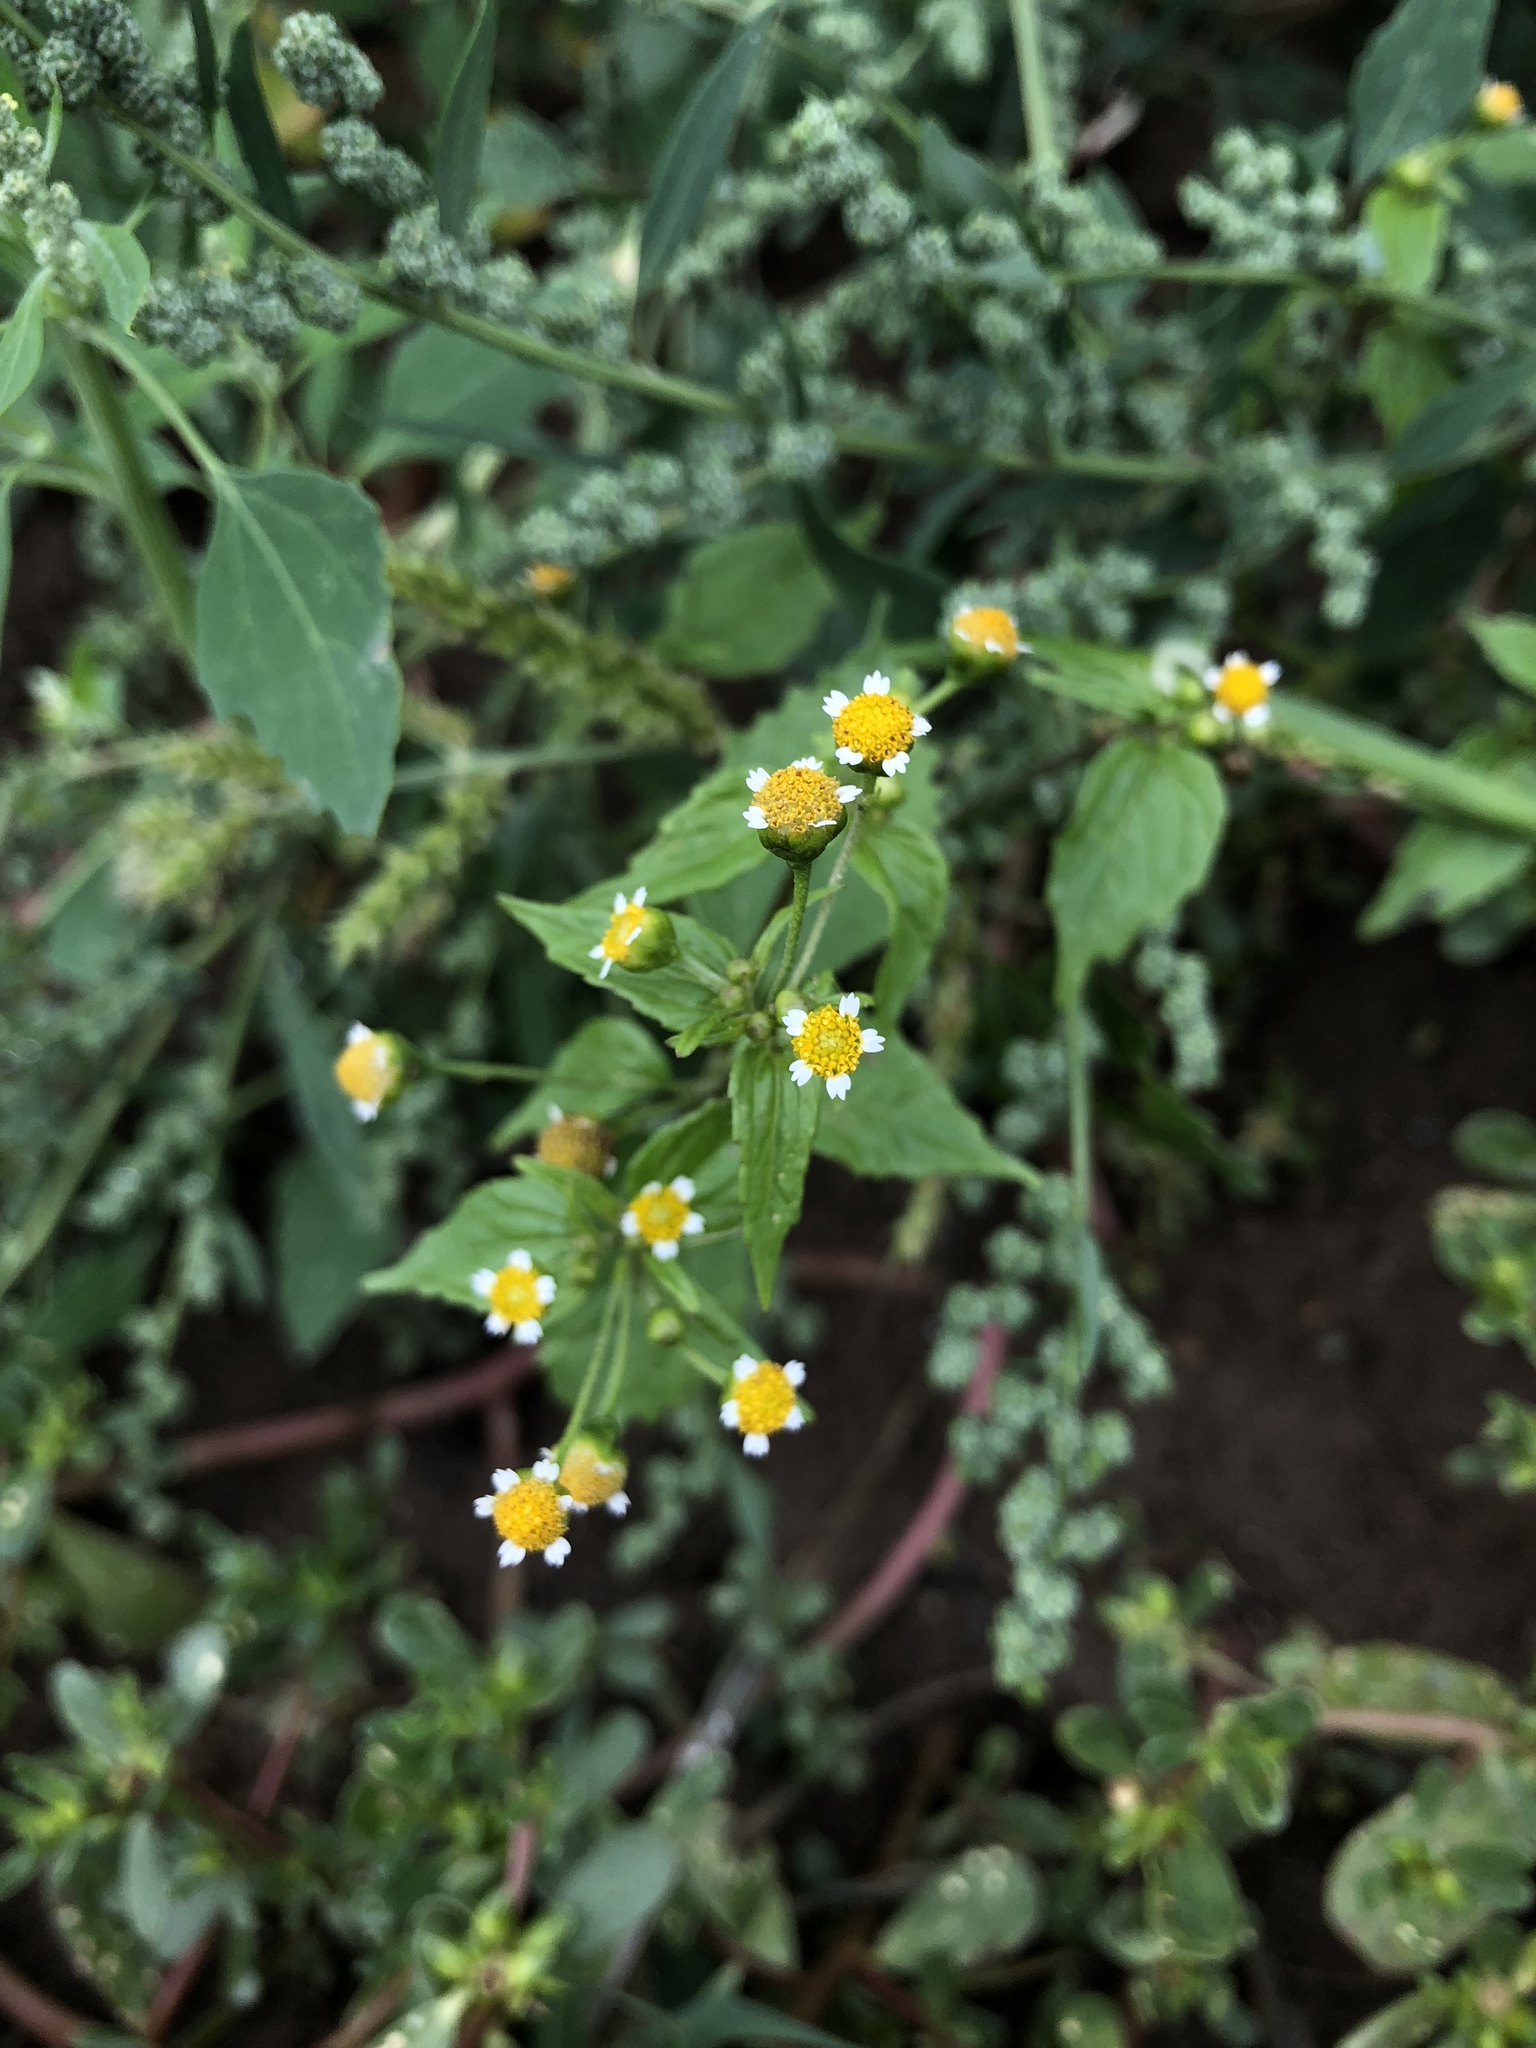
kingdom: Plantae
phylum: Tracheophyta
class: Magnoliopsida
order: Asterales
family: Asteraceae
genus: Galinsoga
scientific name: Galinsoga parviflora
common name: Gallant soldier
